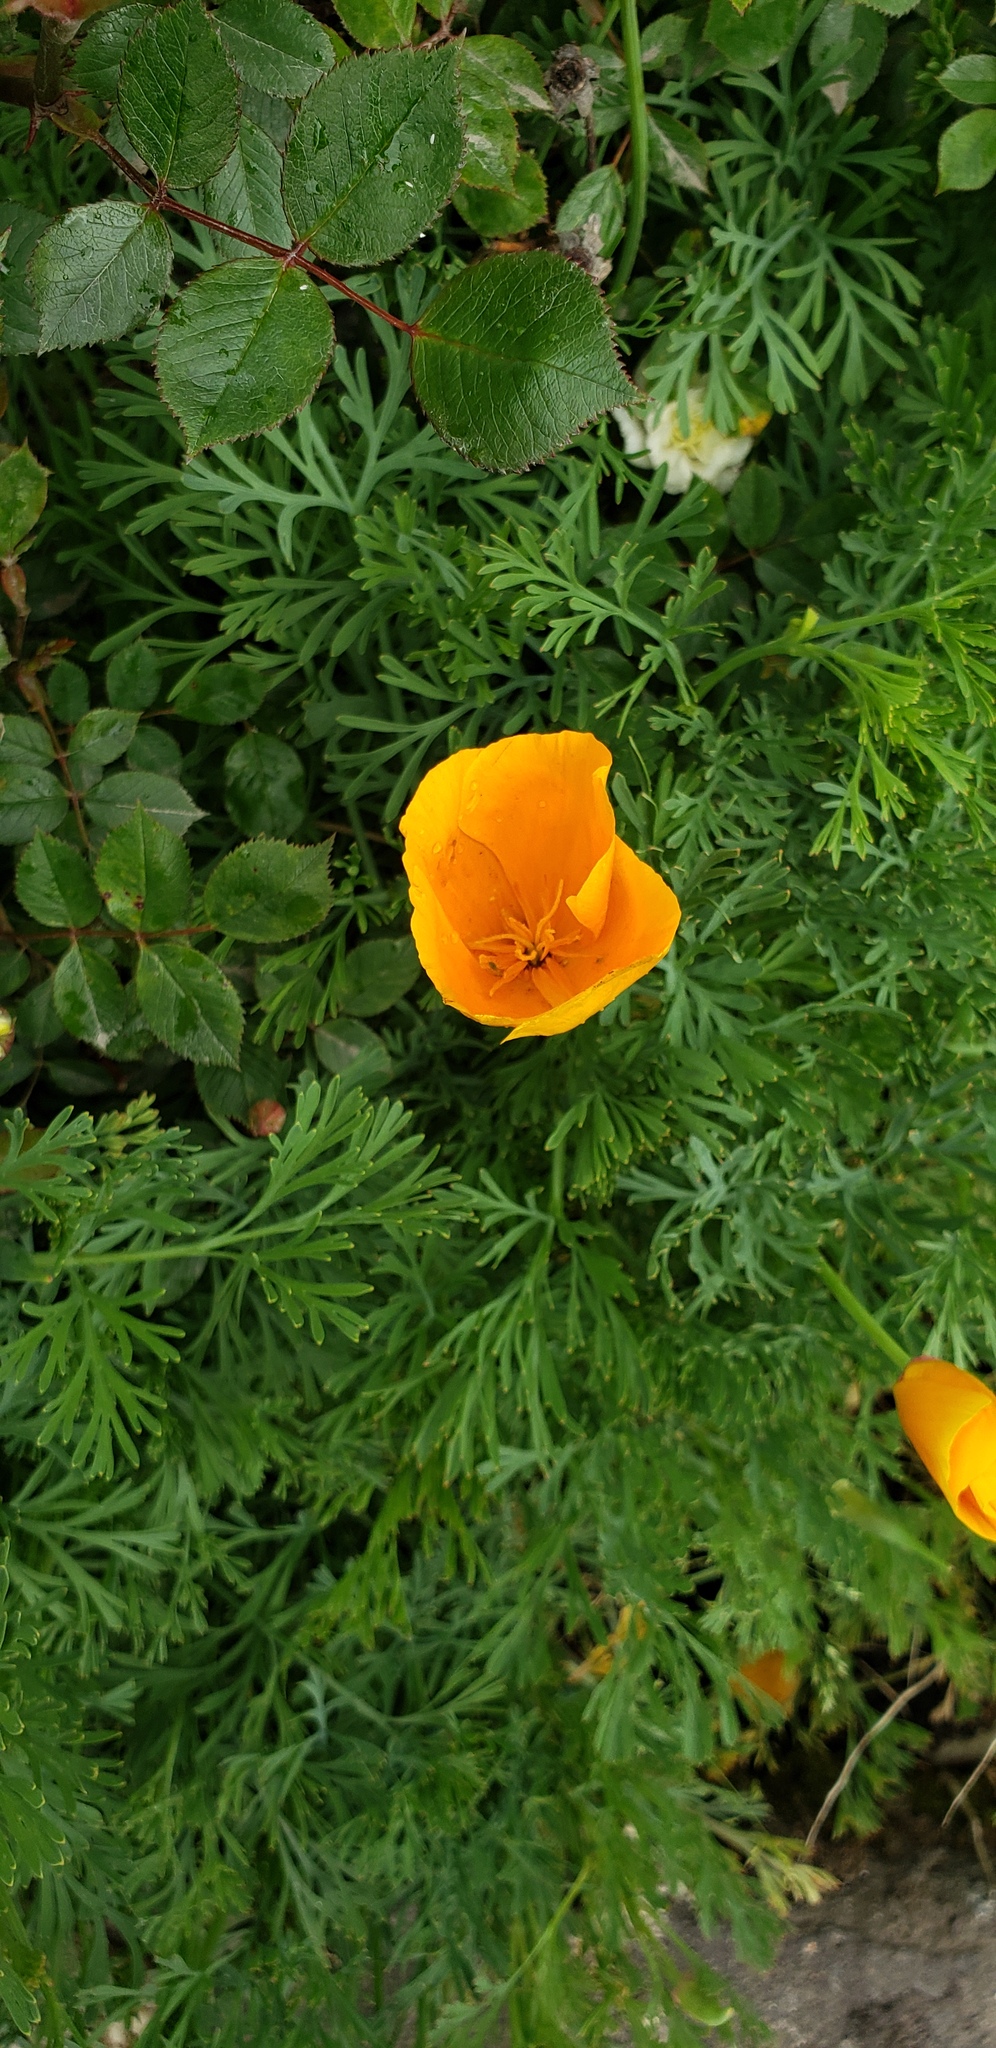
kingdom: Plantae
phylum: Tracheophyta
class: Magnoliopsida
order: Ranunculales
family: Papaveraceae
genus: Eschscholzia
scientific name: Eschscholzia californica
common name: California poppy
